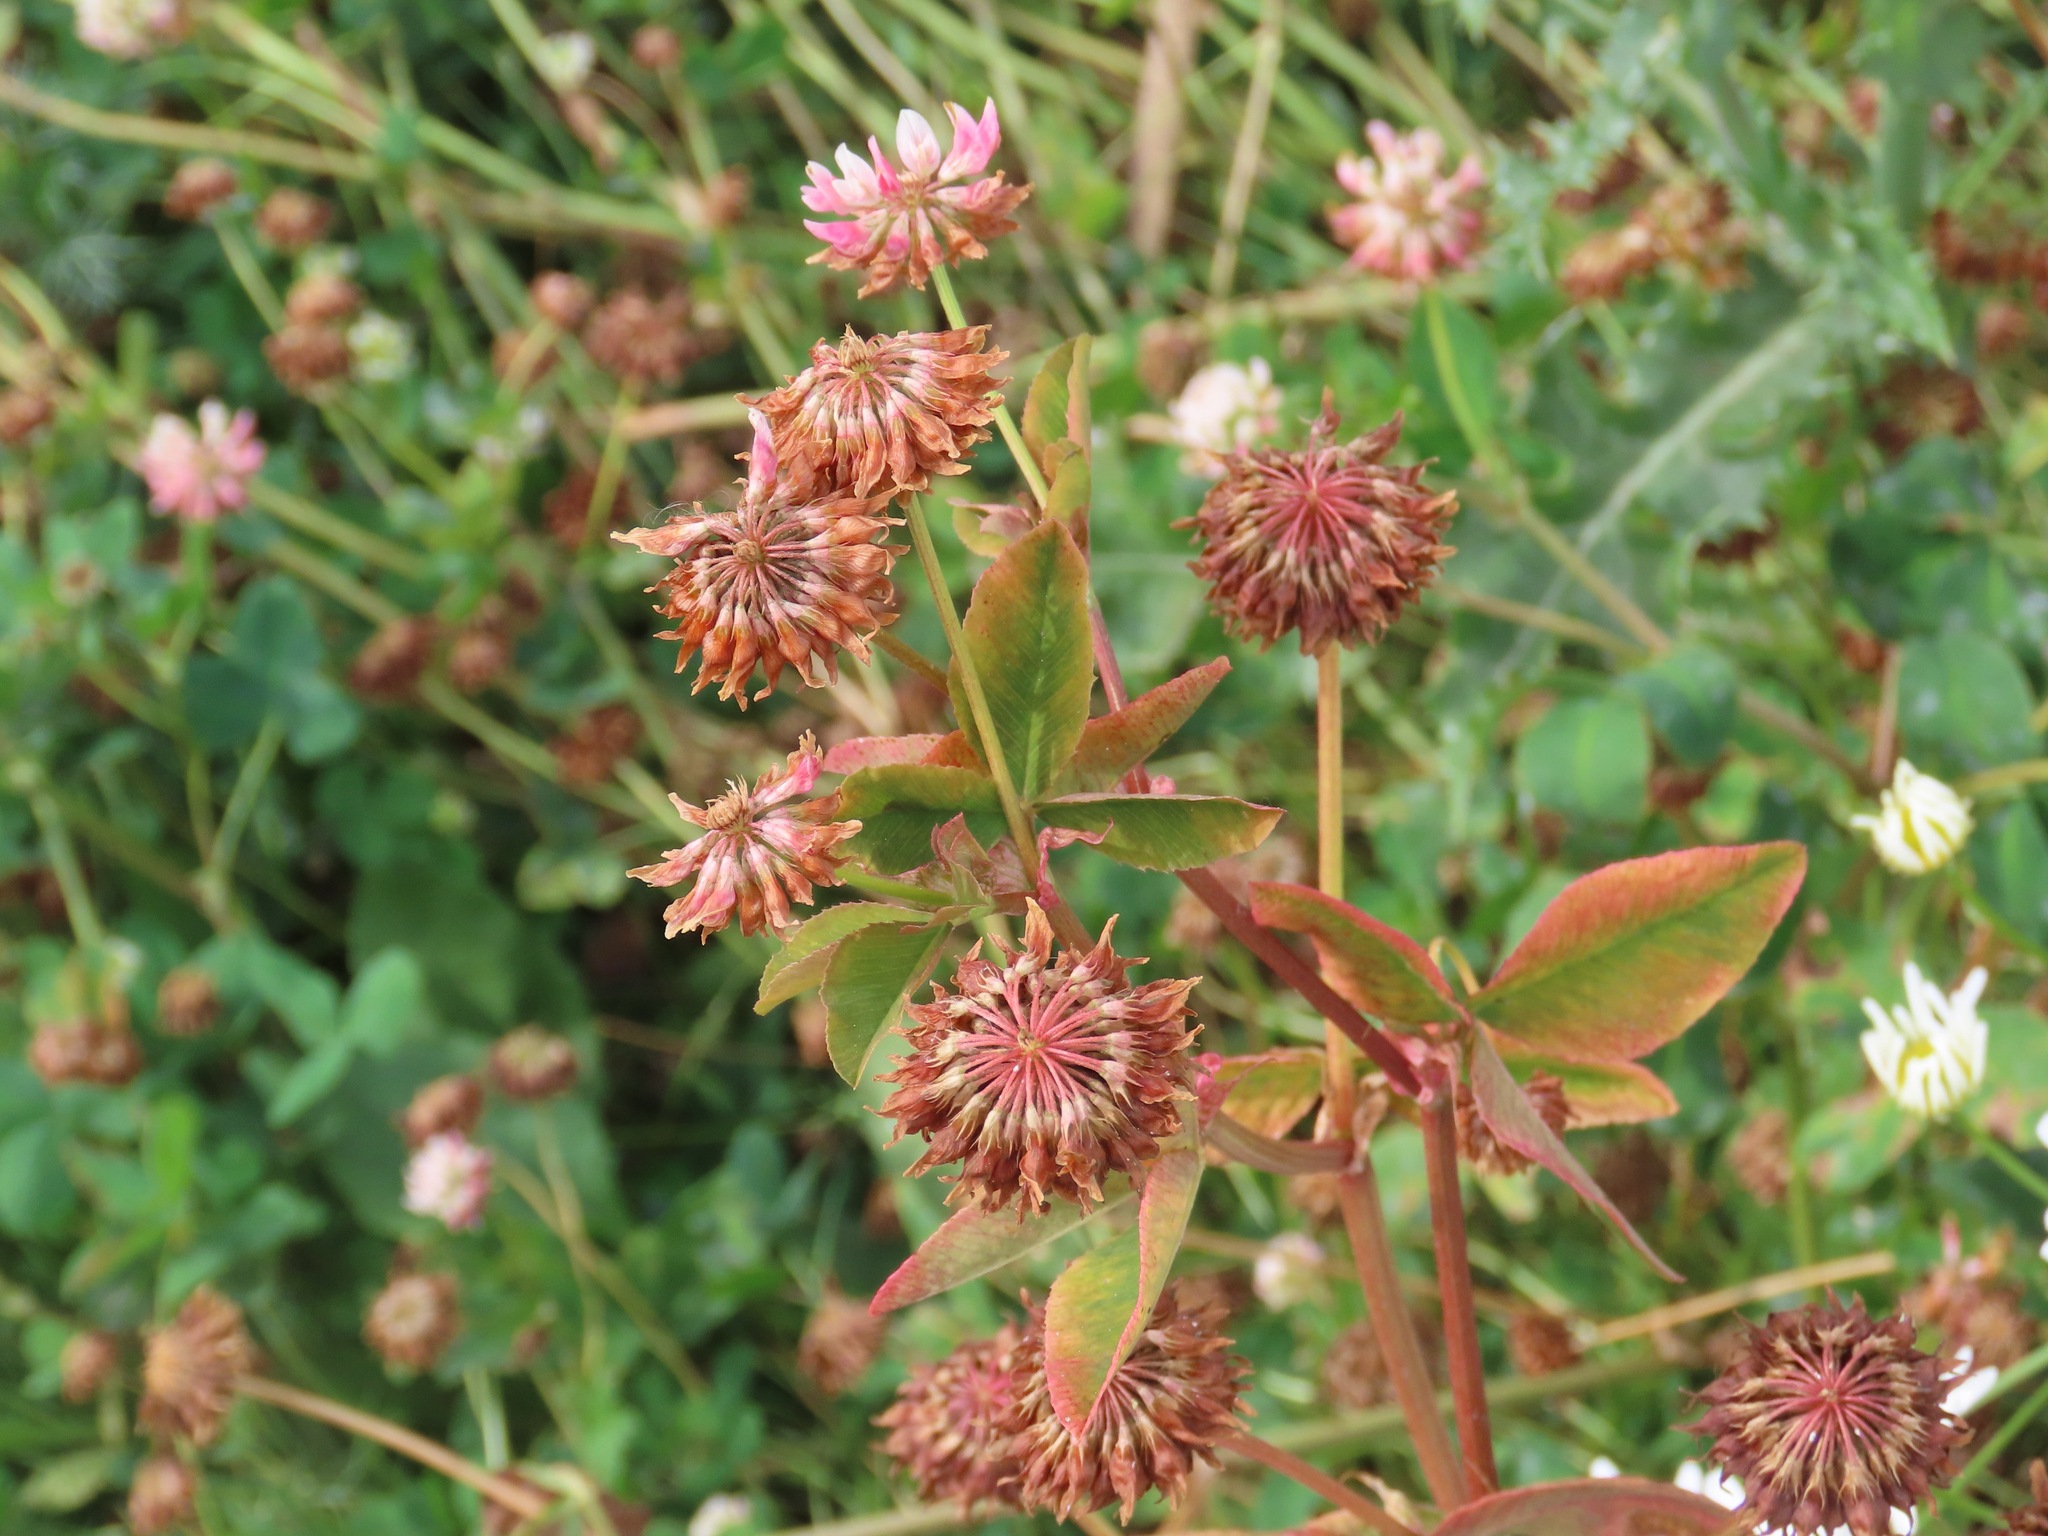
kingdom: Plantae
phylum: Tracheophyta
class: Magnoliopsida
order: Fabales
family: Fabaceae
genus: Trifolium
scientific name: Trifolium hybridum
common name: Alsike clover
